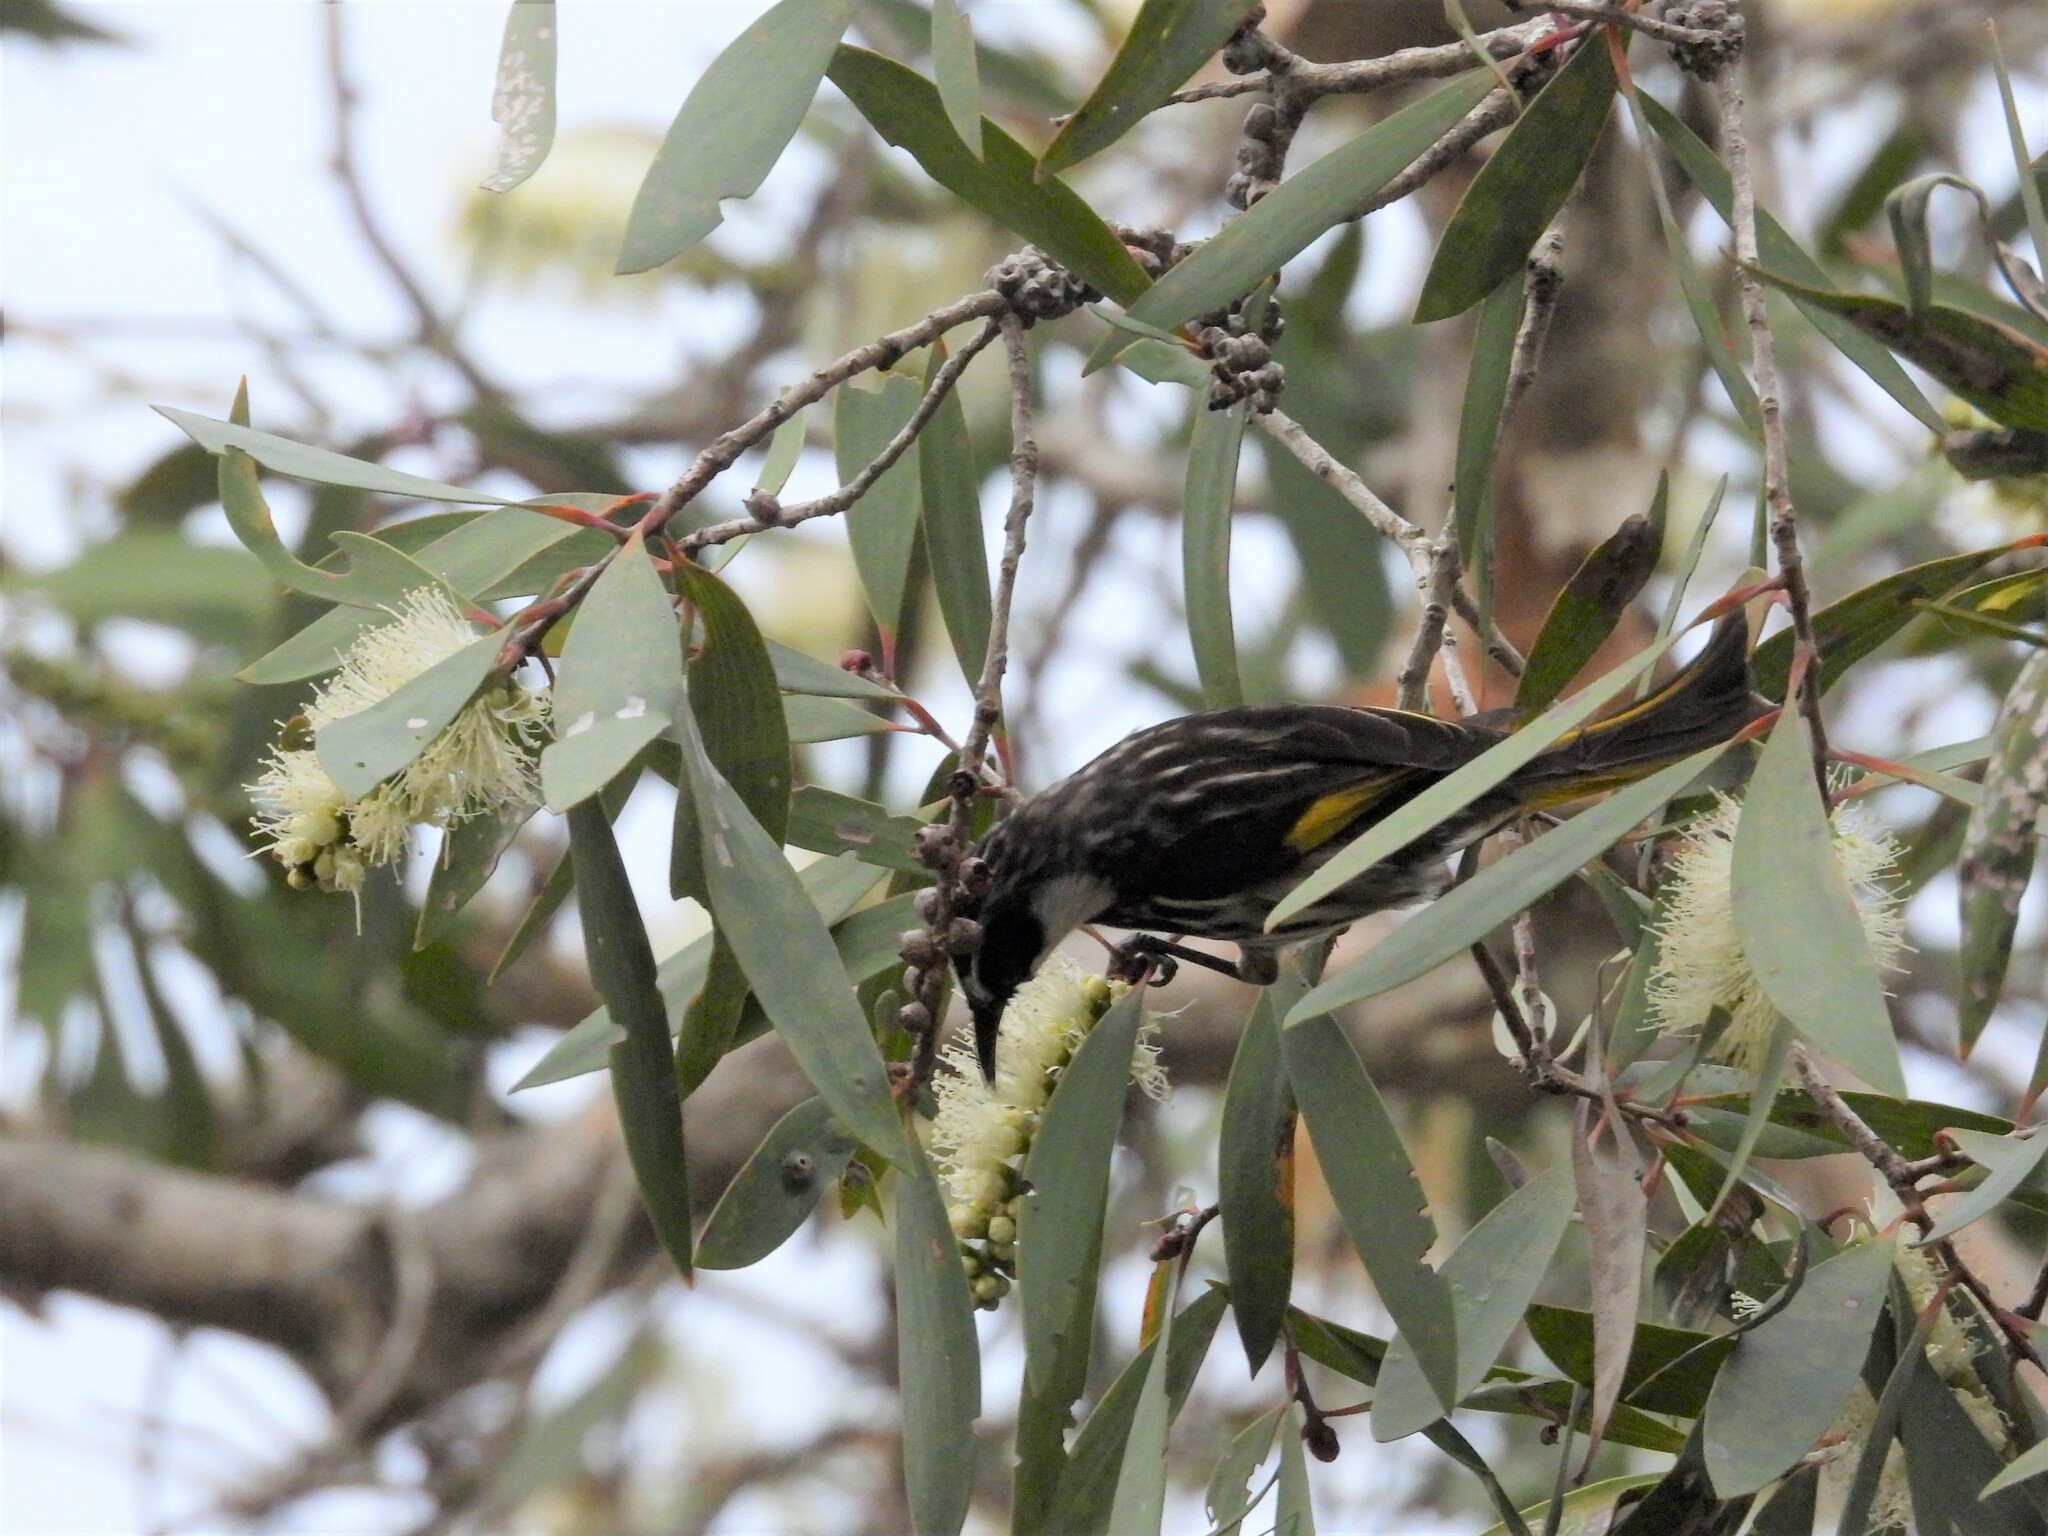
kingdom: Animalia
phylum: Chordata
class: Aves
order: Passeriformes
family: Meliphagidae
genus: Phylidonyris
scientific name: Phylidonyris niger
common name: White-cheeked honeyeater
